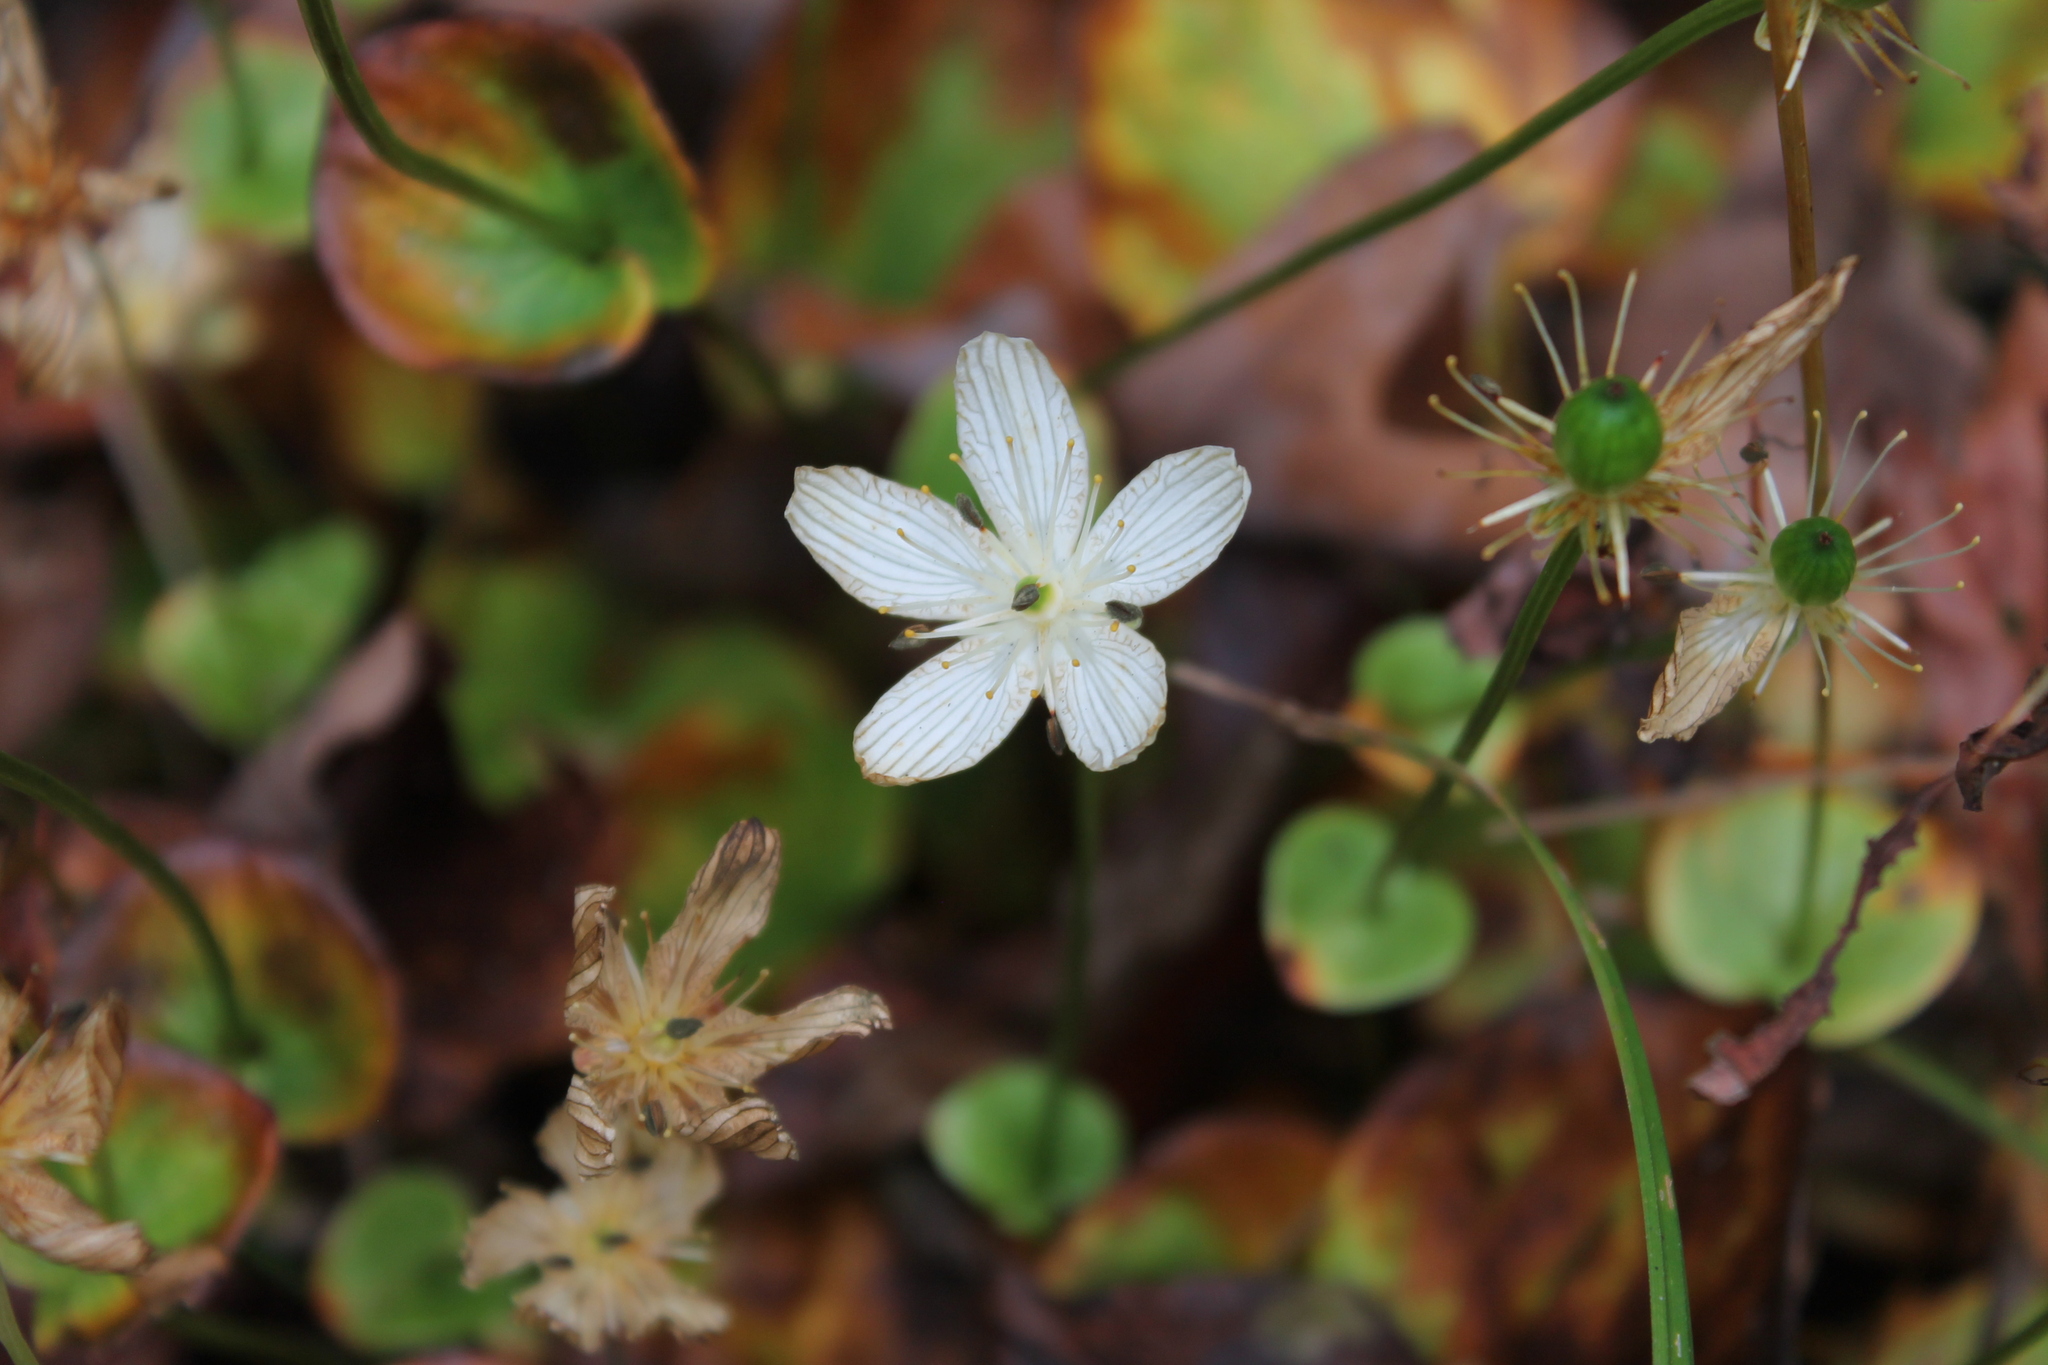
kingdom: Plantae
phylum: Tracheophyta
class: Magnoliopsida
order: Celastrales
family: Parnassiaceae
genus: Parnassia
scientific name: Parnassia grandifolia
